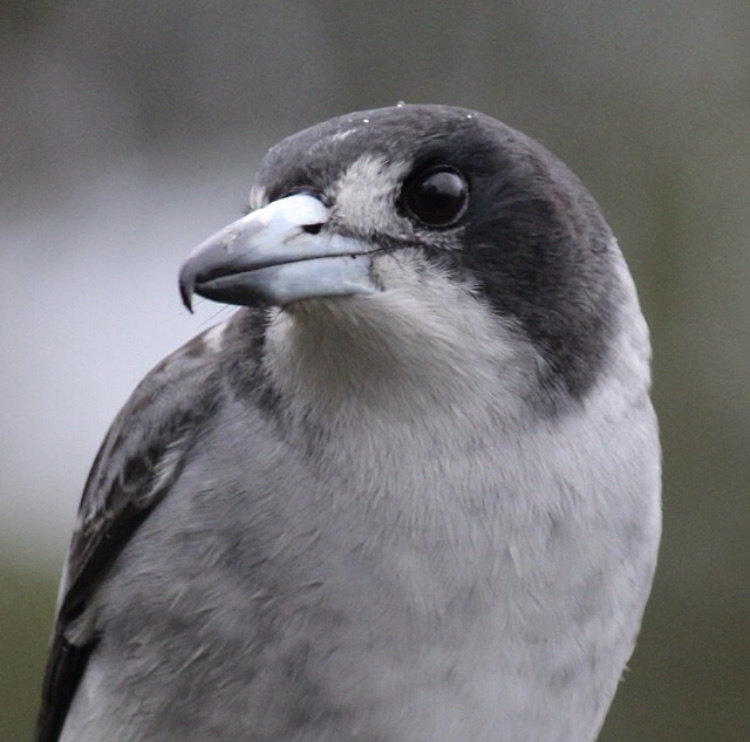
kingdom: Animalia
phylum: Chordata
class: Aves
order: Passeriformes
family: Cracticidae
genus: Cracticus
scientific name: Cracticus torquatus
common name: Grey butcherbird
